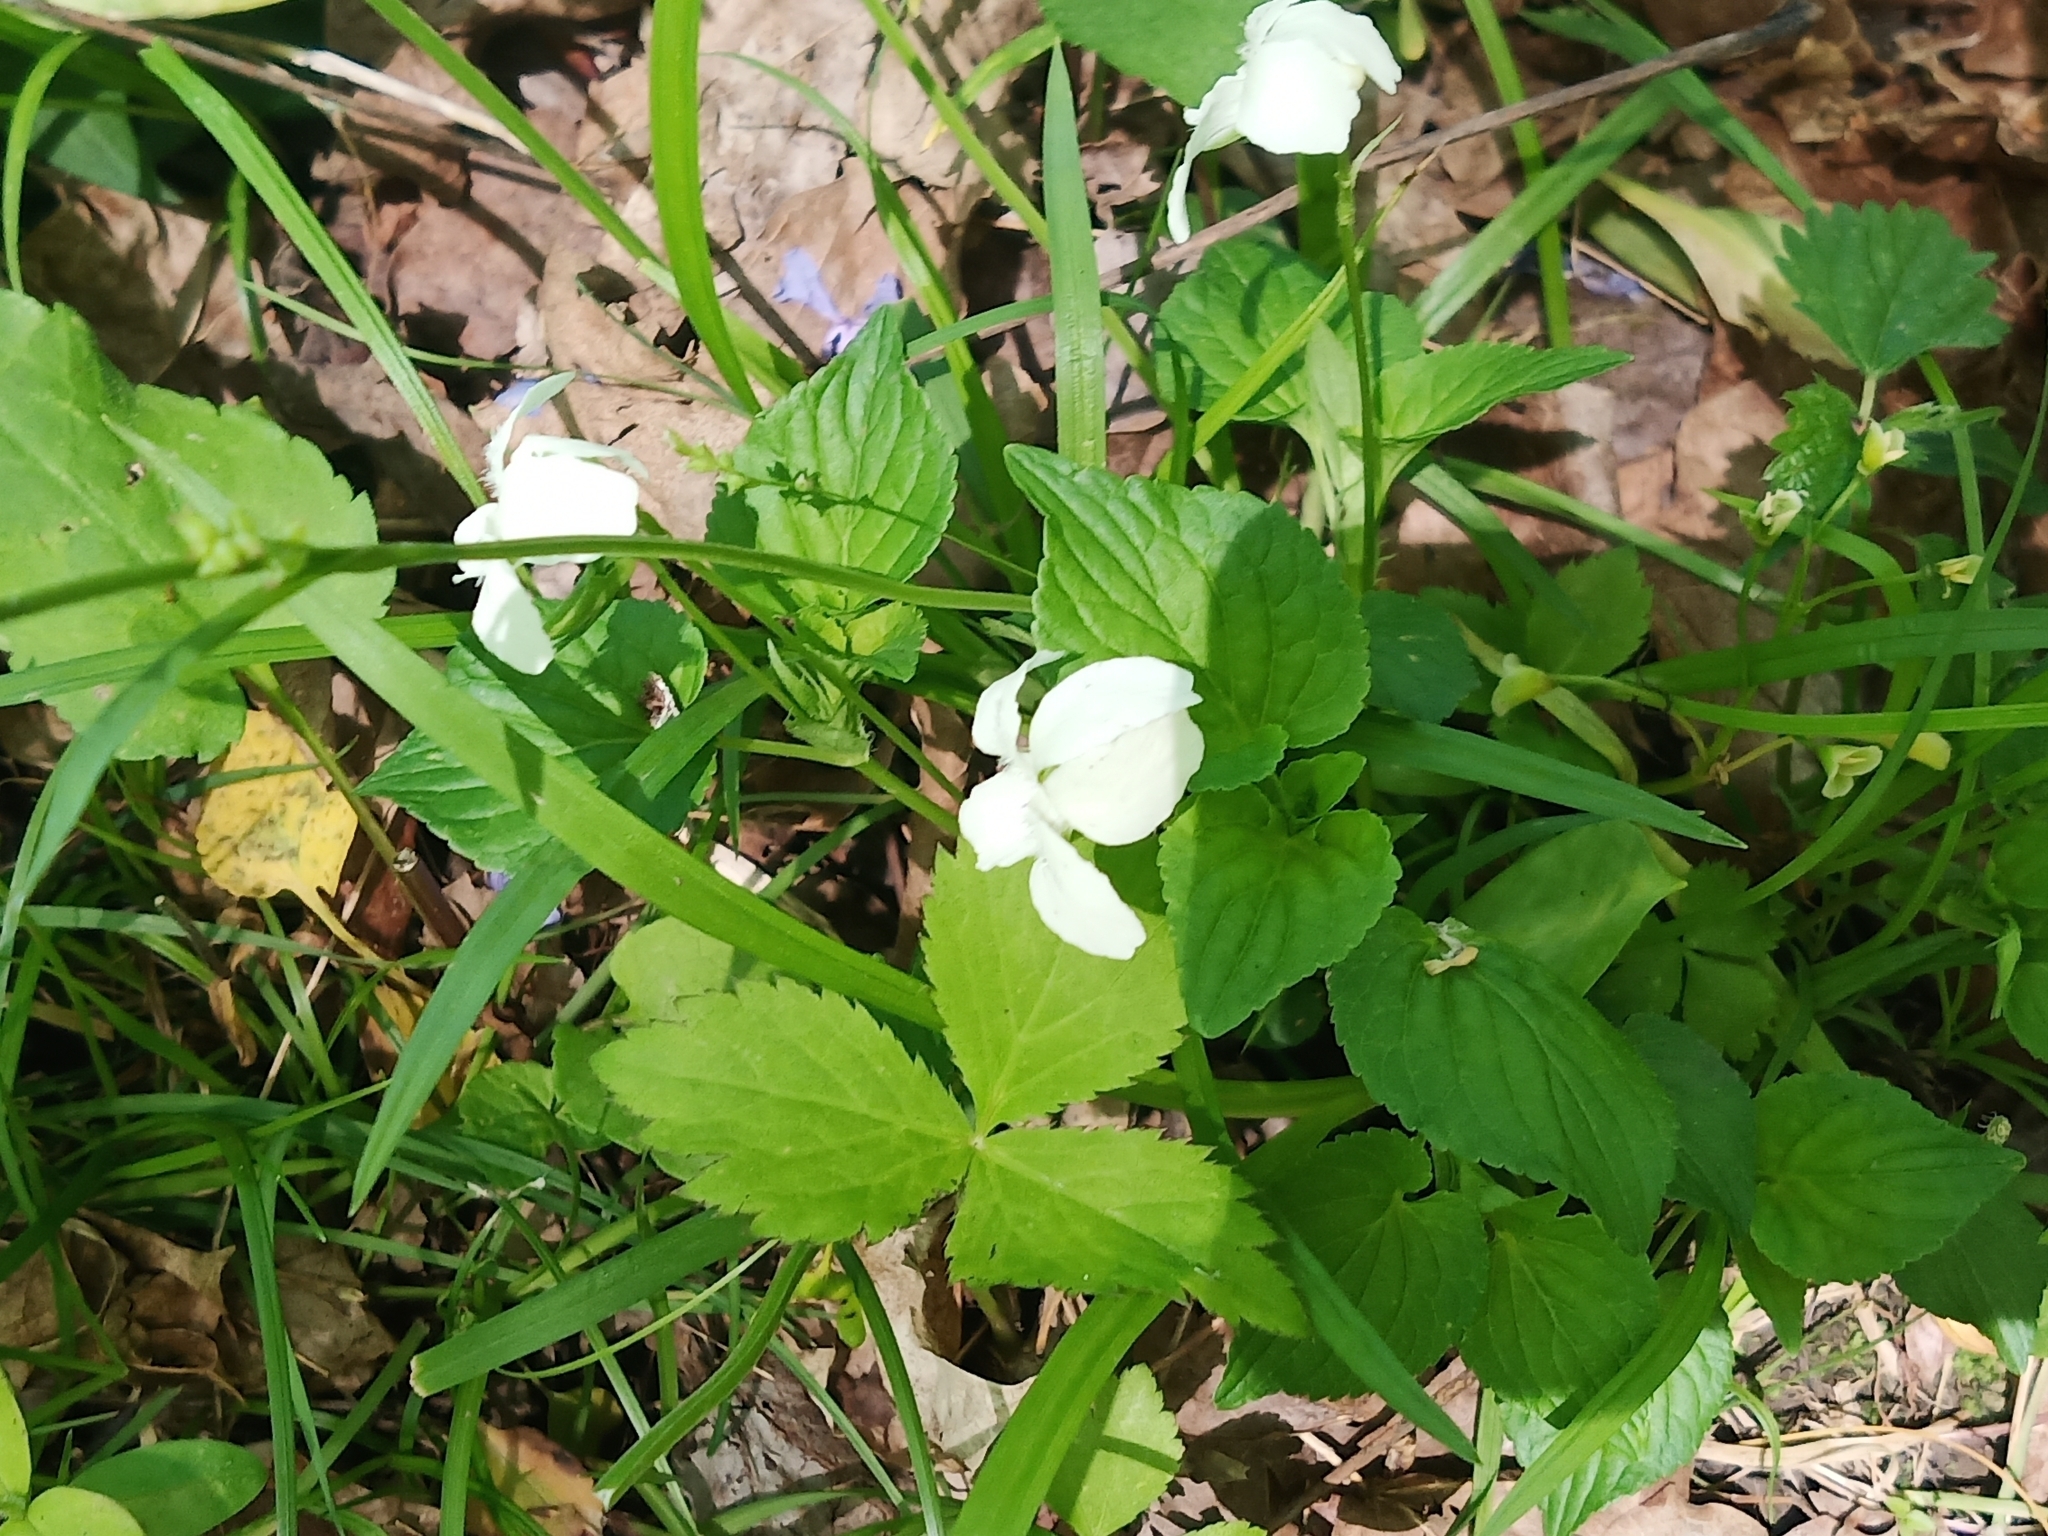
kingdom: Plantae
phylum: Tracheophyta
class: Magnoliopsida
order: Malpighiales
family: Violaceae
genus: Viola
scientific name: Viola striata
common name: Cream violet
